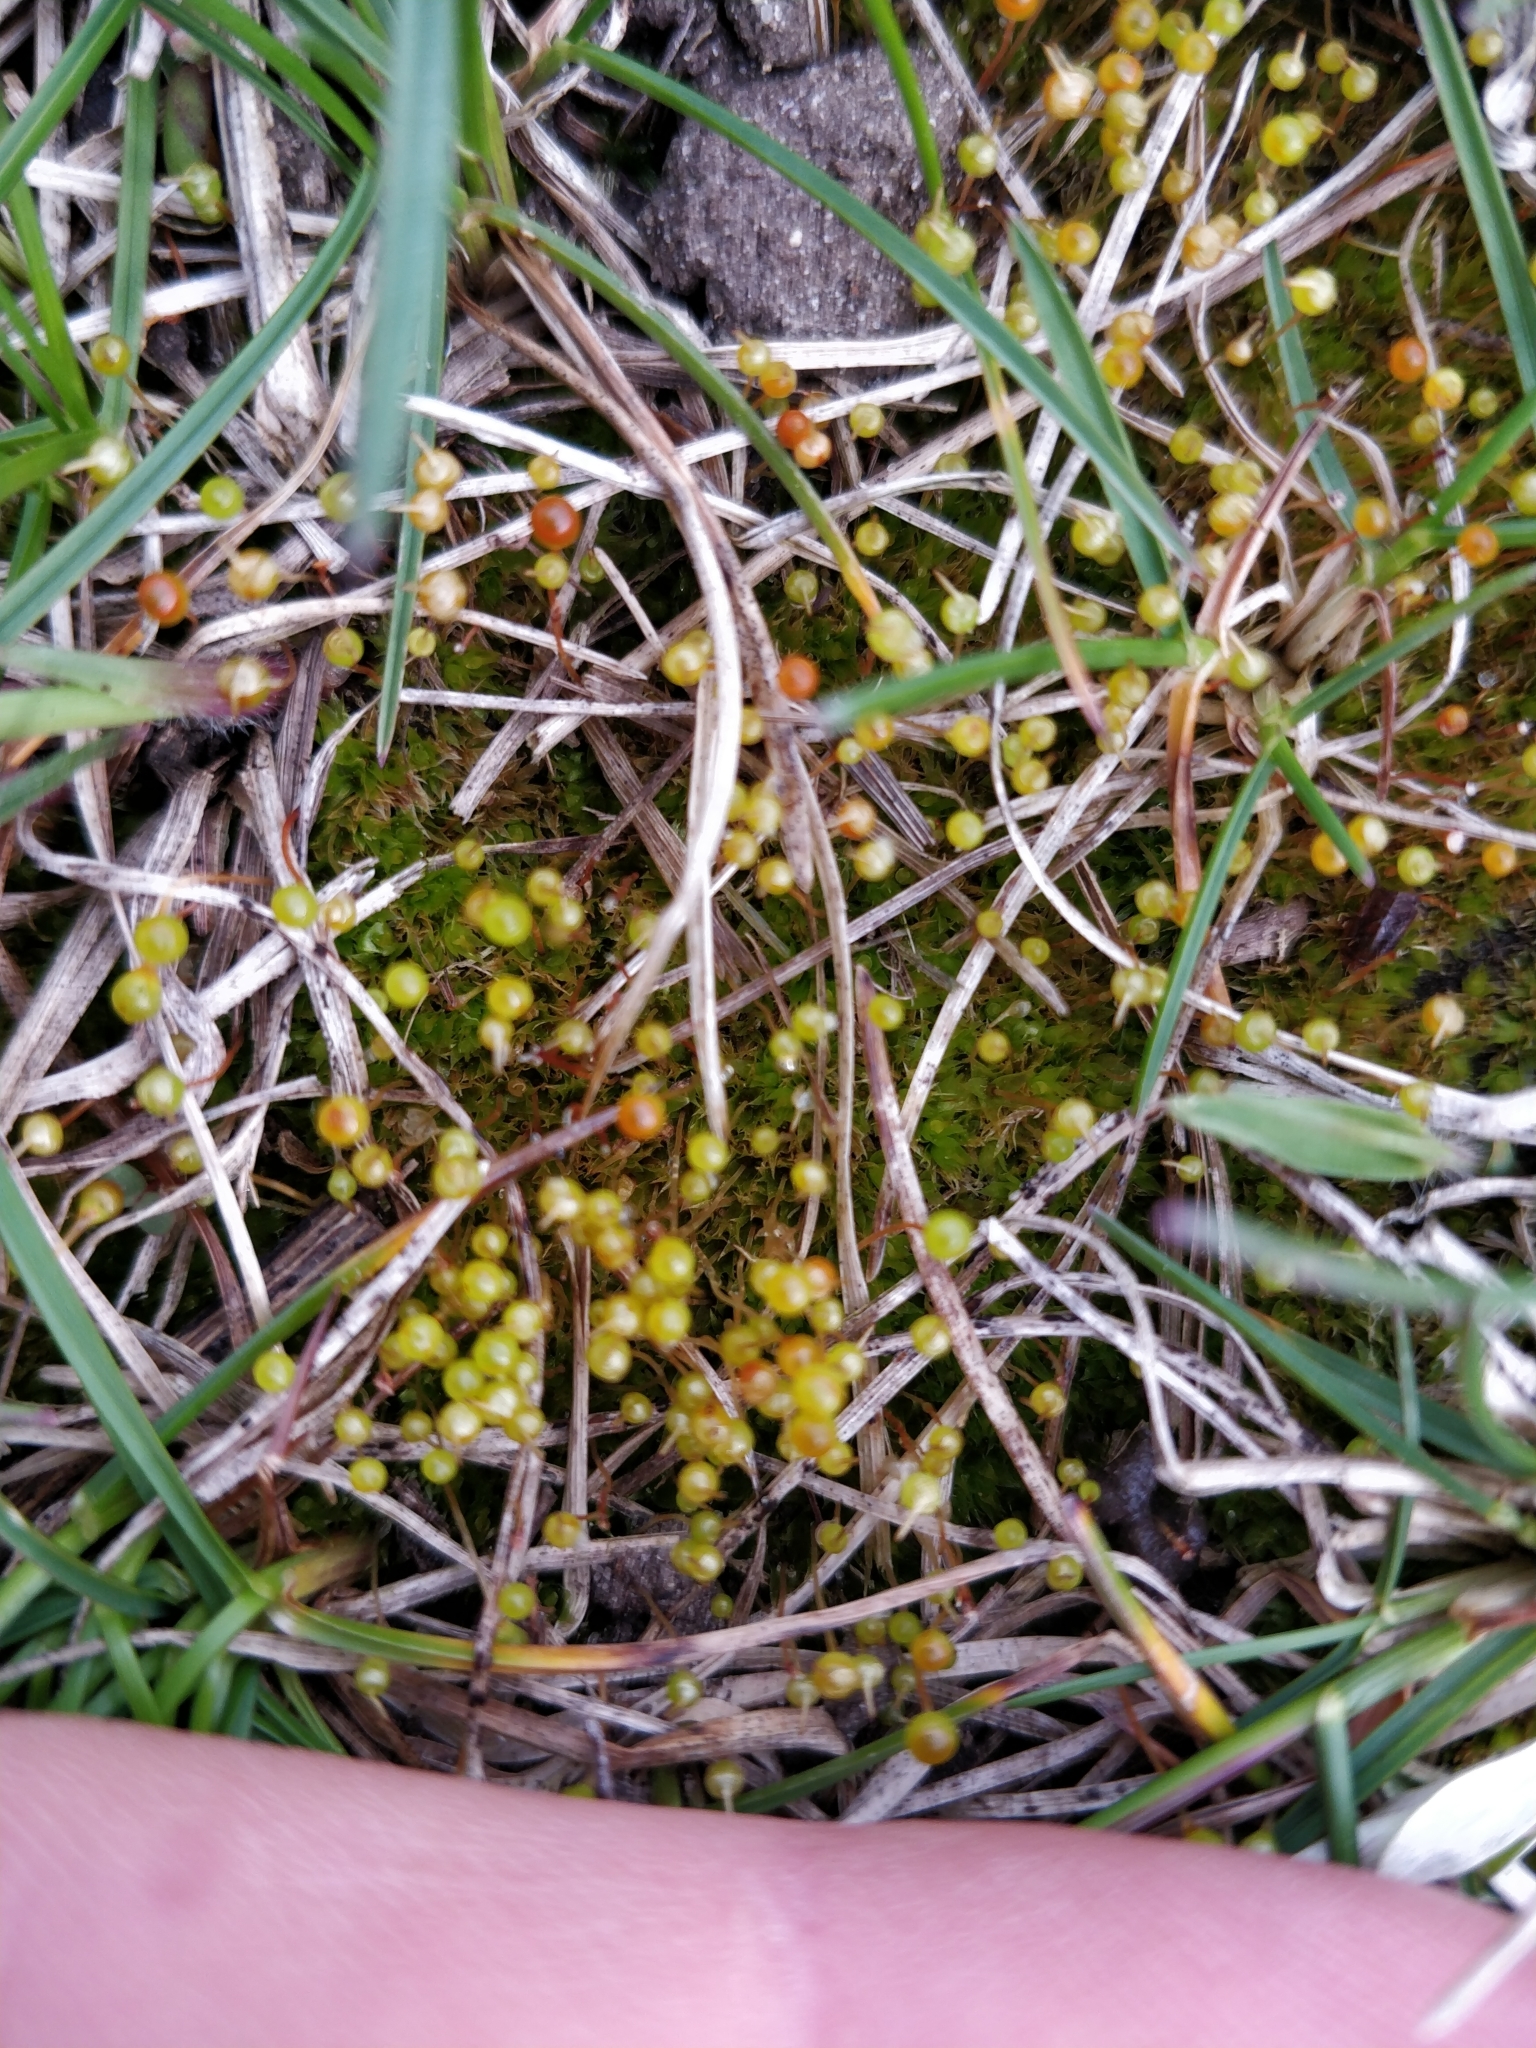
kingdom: Plantae
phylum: Bryophyta
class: Bryopsida
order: Funariales
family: Funariaceae
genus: Physcomitrium
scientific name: Physcomitrium pyriforme
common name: Common bladder-moss
